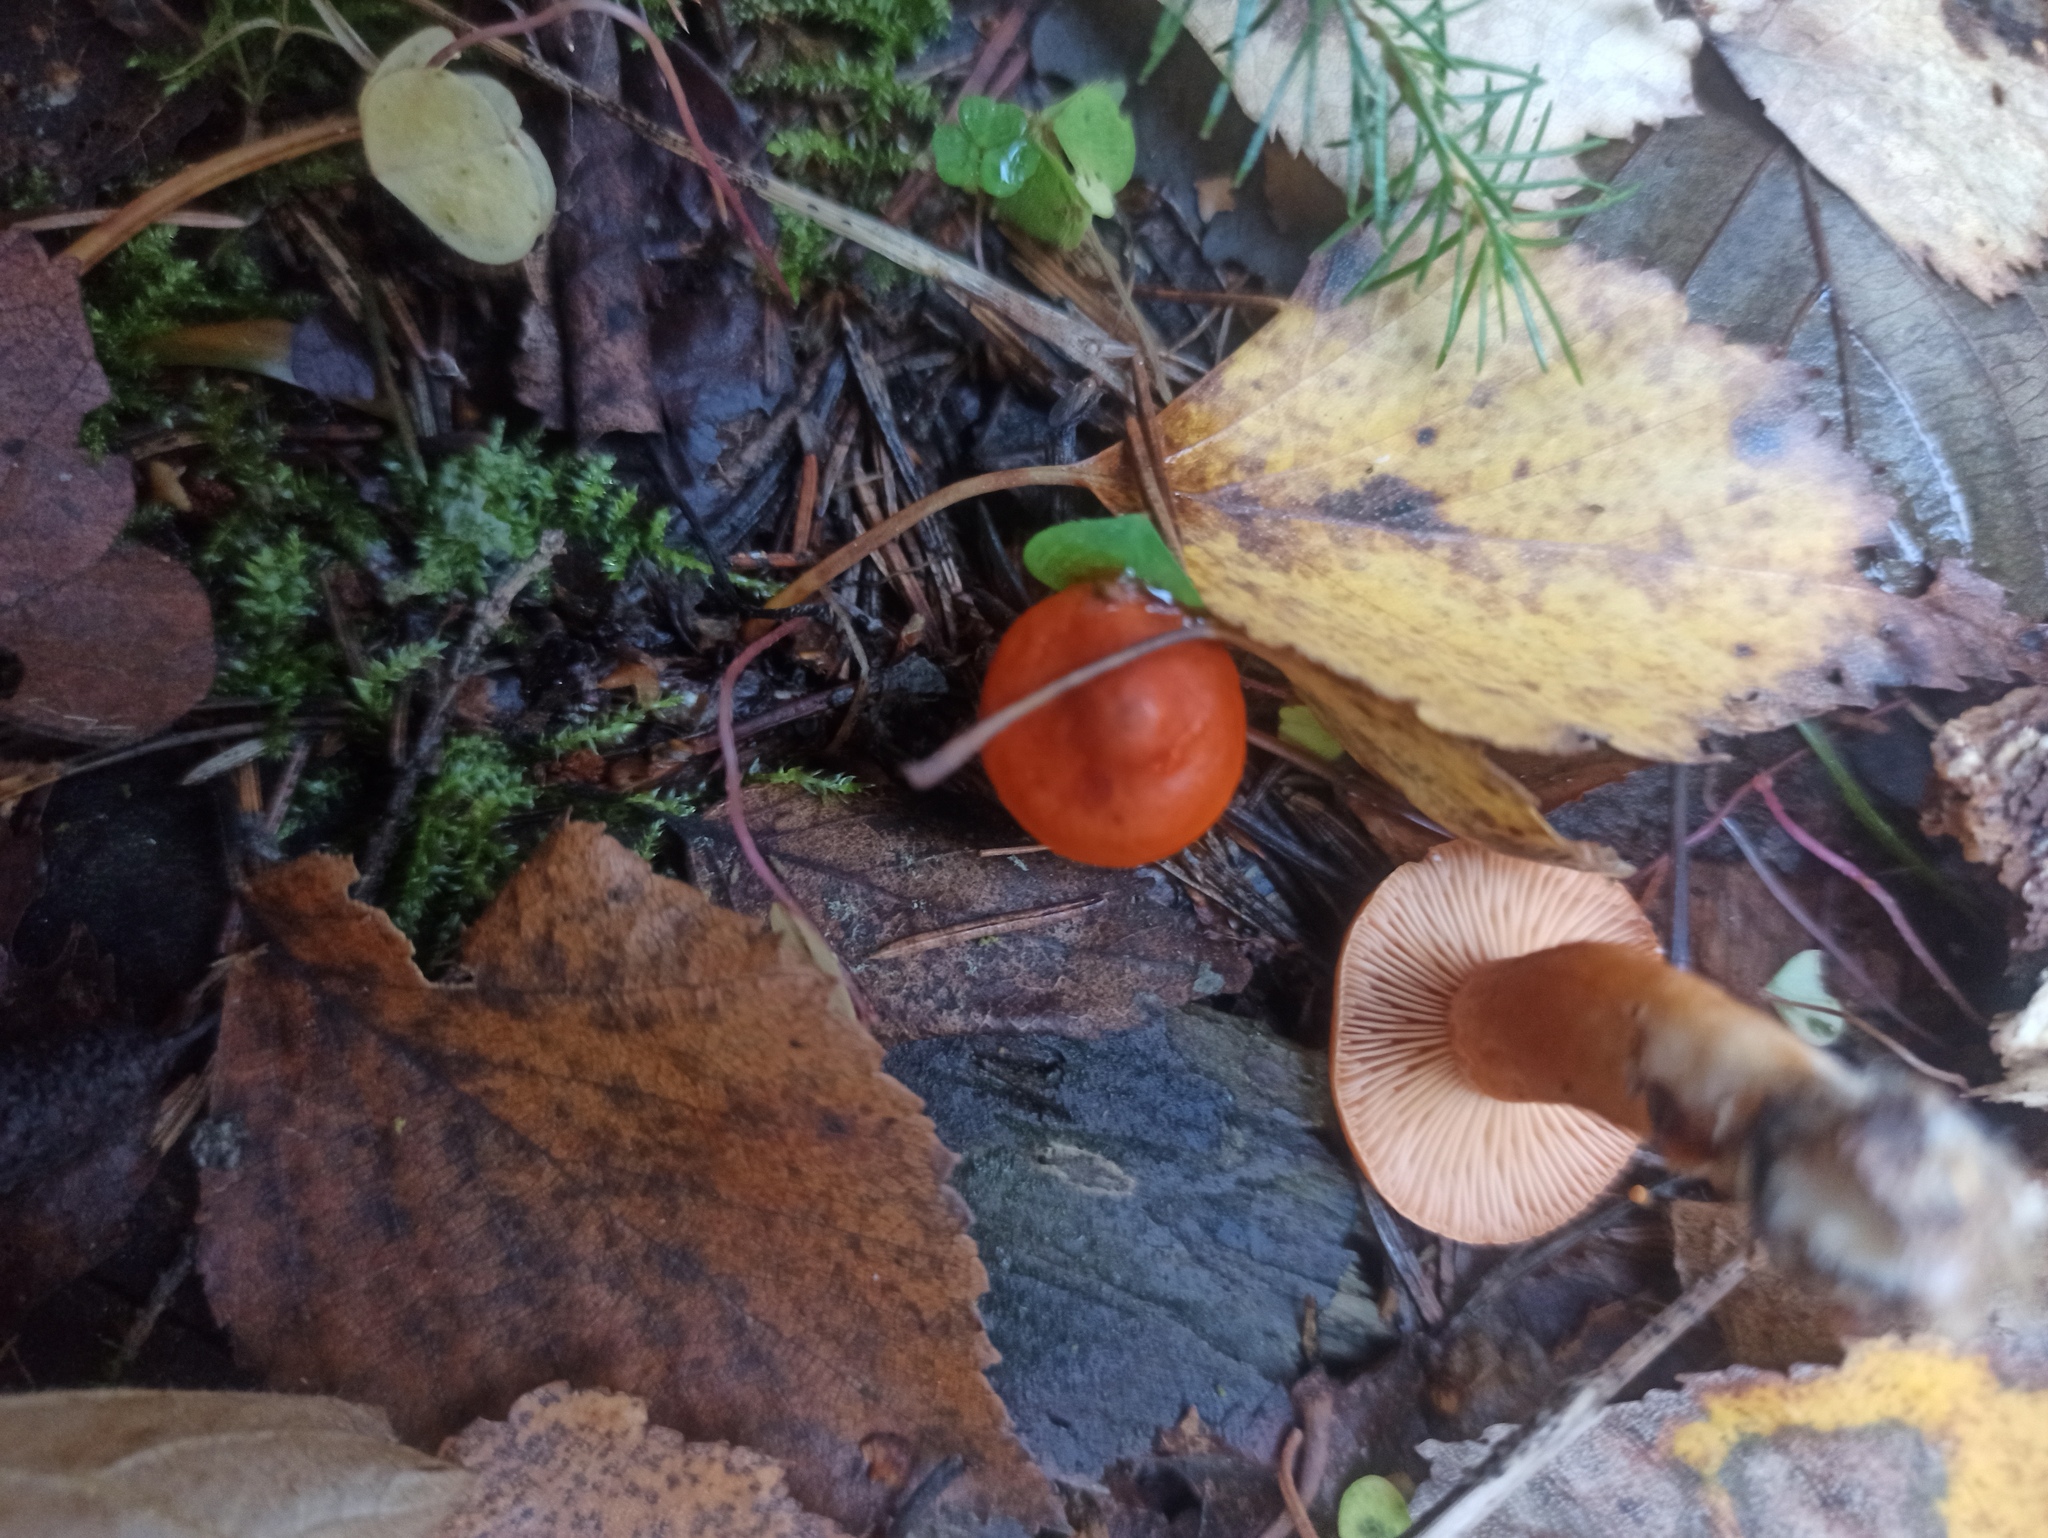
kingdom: Fungi
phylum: Basidiomycota
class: Agaricomycetes
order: Russulales
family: Russulaceae
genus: Lactarius
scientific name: Lactarius aurantiacus
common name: Orange milkcap
